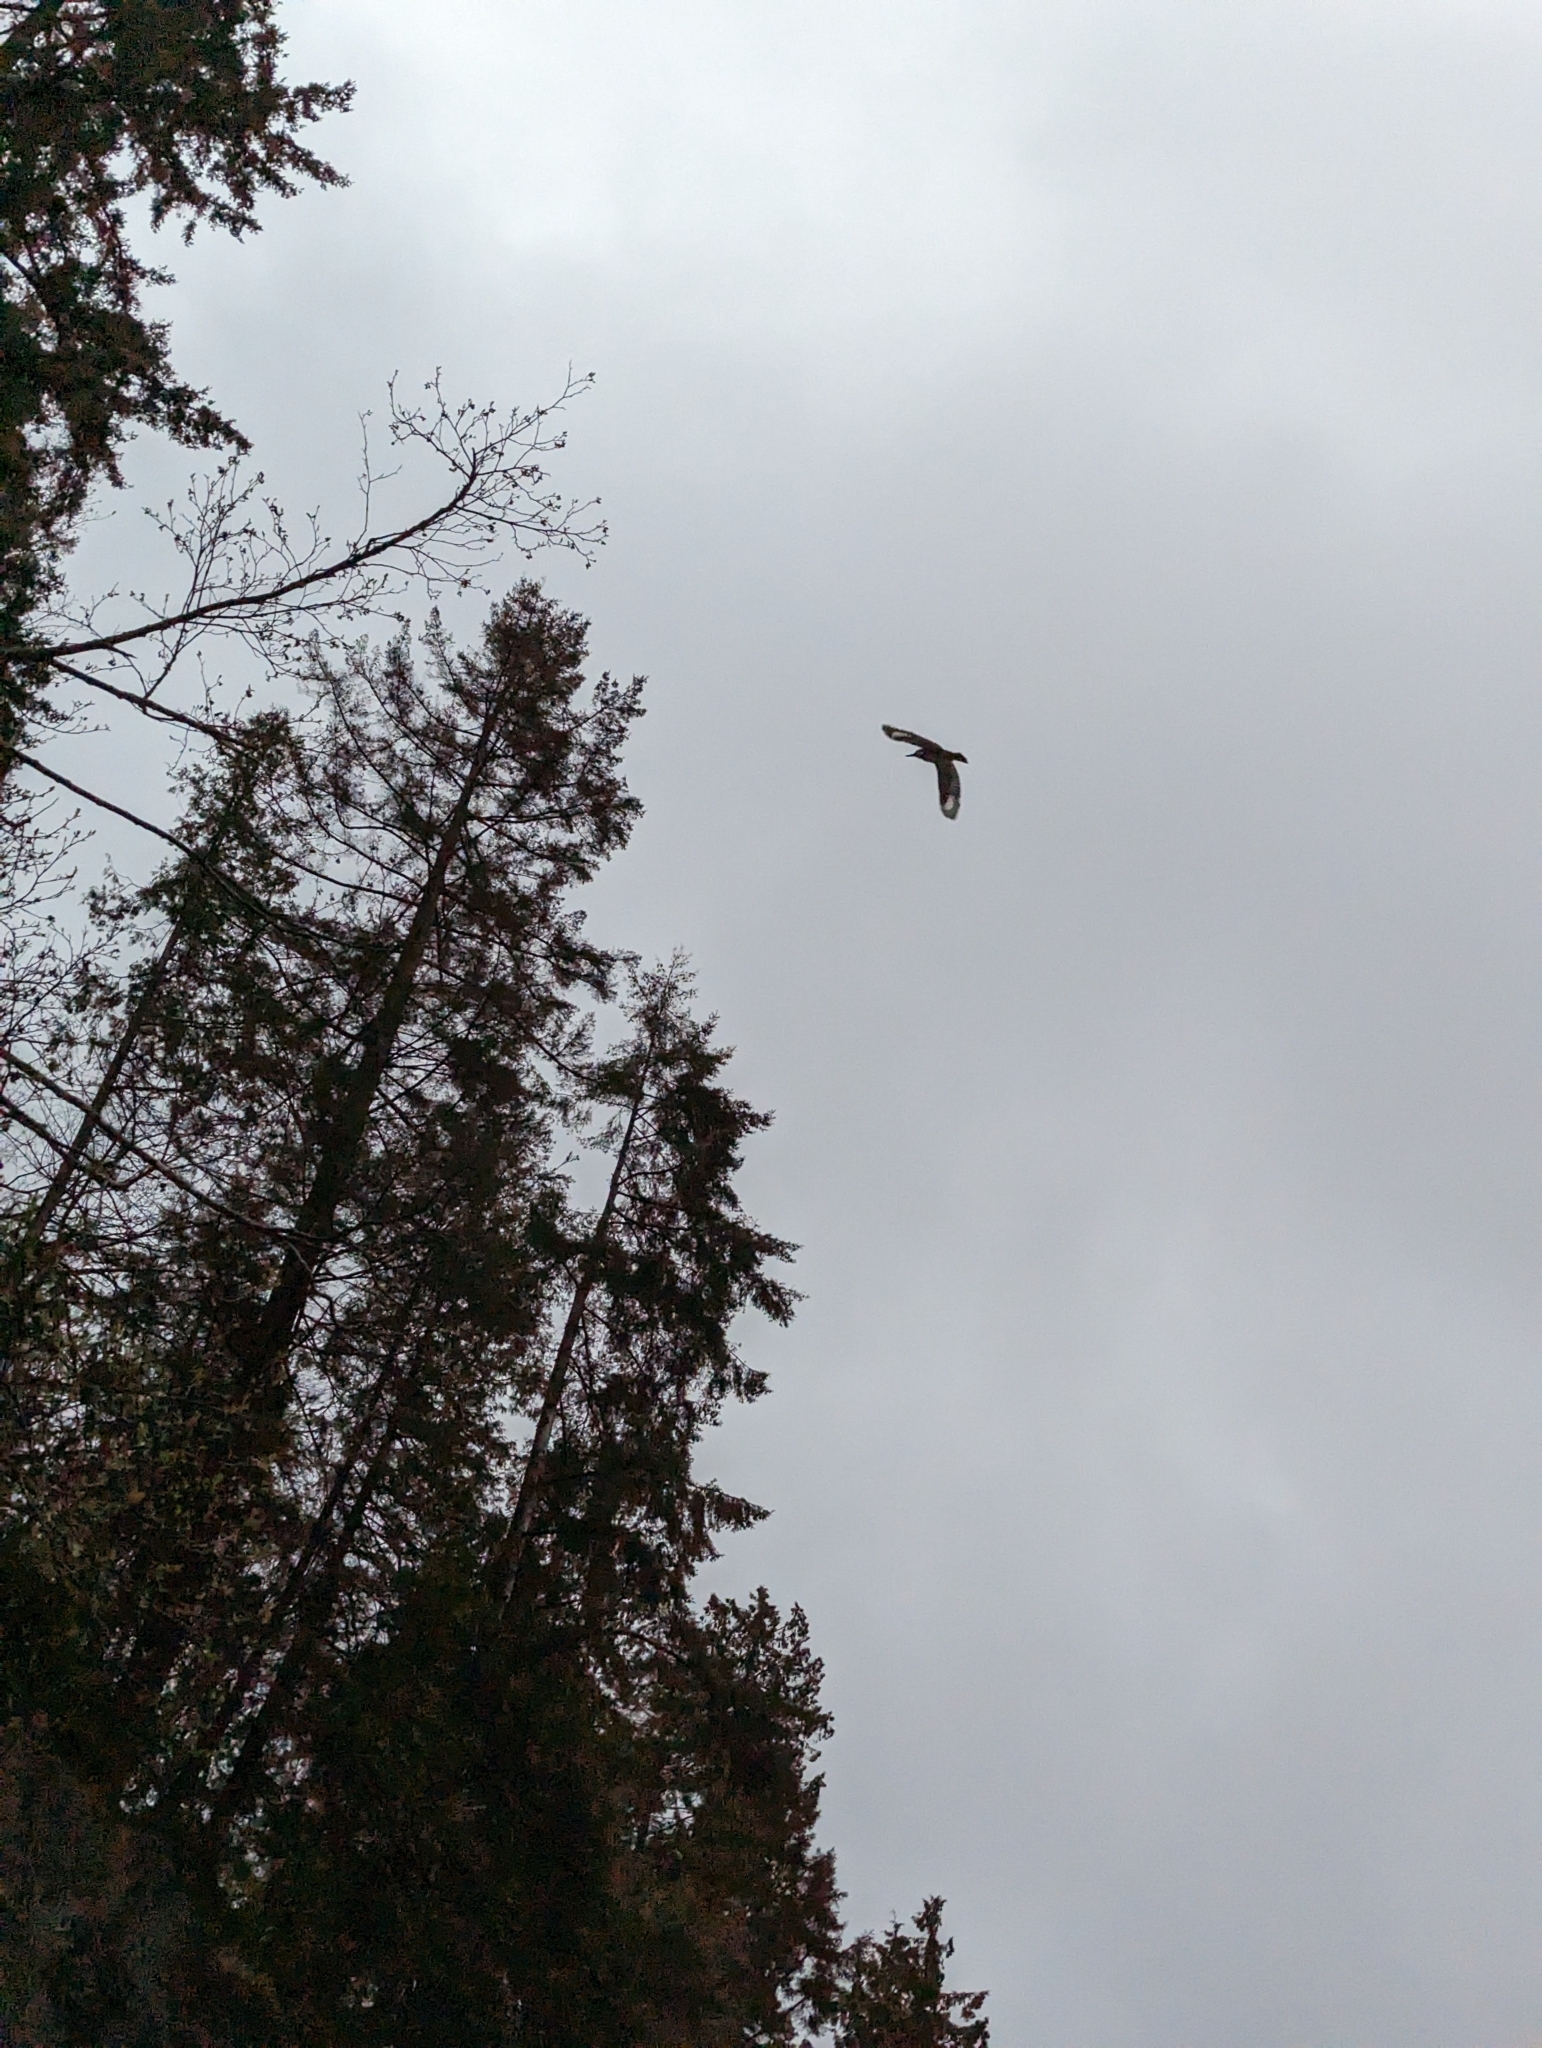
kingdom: Animalia
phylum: Chordata
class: Aves
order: Coraciiformes
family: Alcedinidae
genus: Megaceryle
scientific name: Megaceryle alcyon
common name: Belted kingfisher
